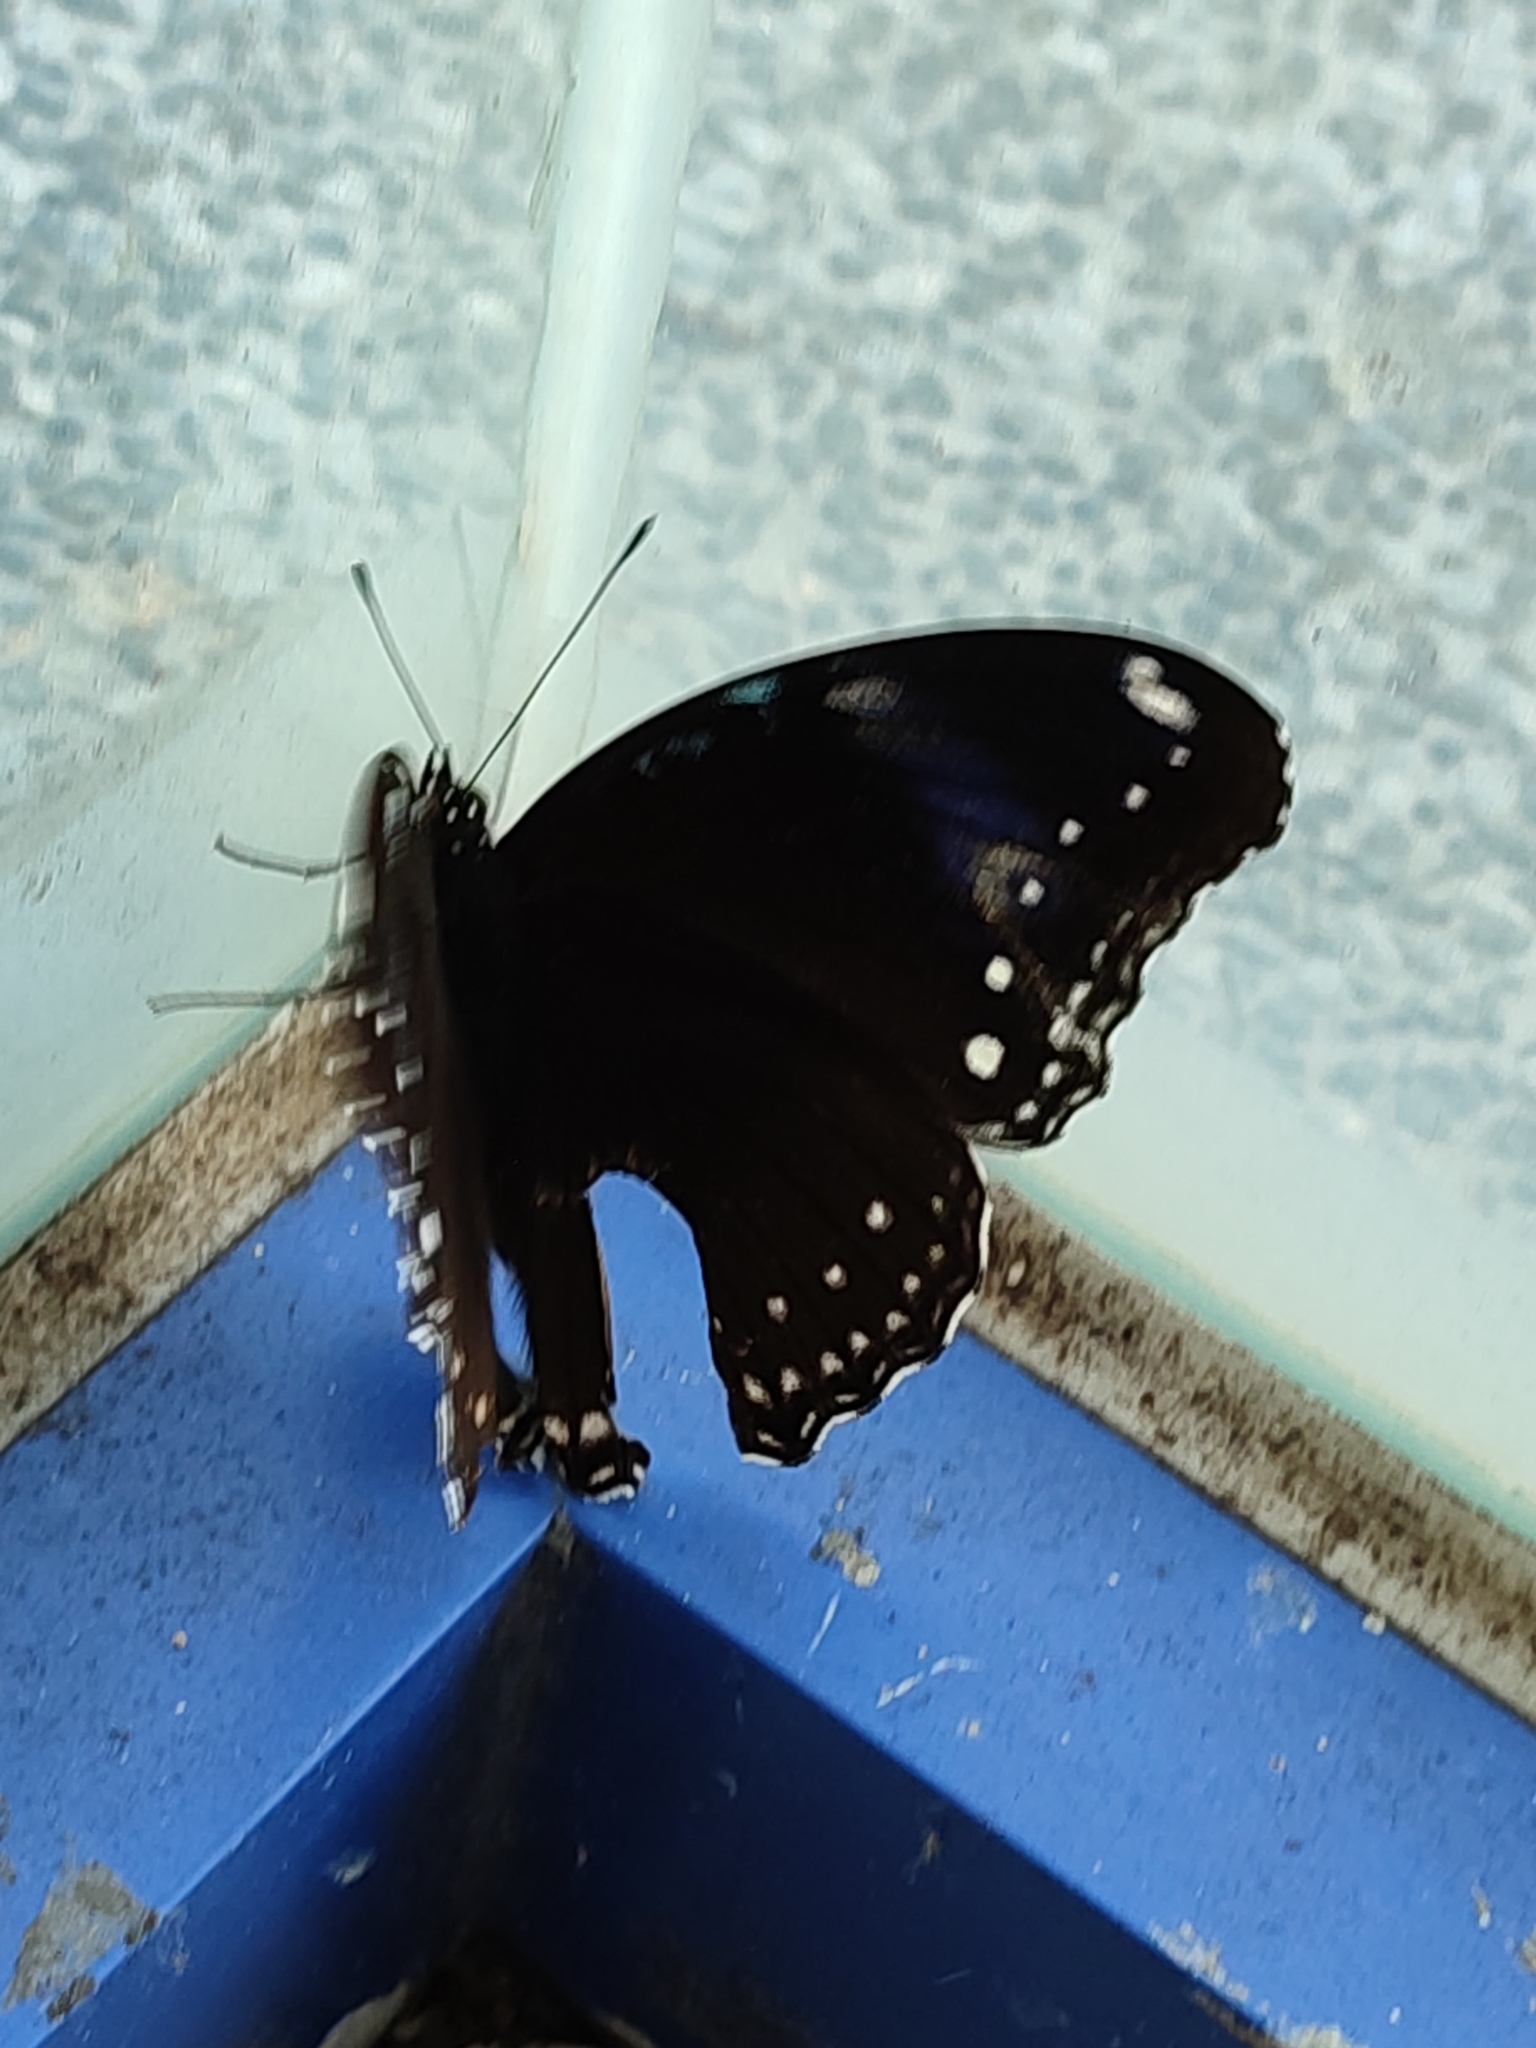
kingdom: Animalia
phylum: Arthropoda
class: Insecta
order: Lepidoptera
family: Nymphalidae
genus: Hypolimnas
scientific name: Hypolimnas bolina
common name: Great eggfly
